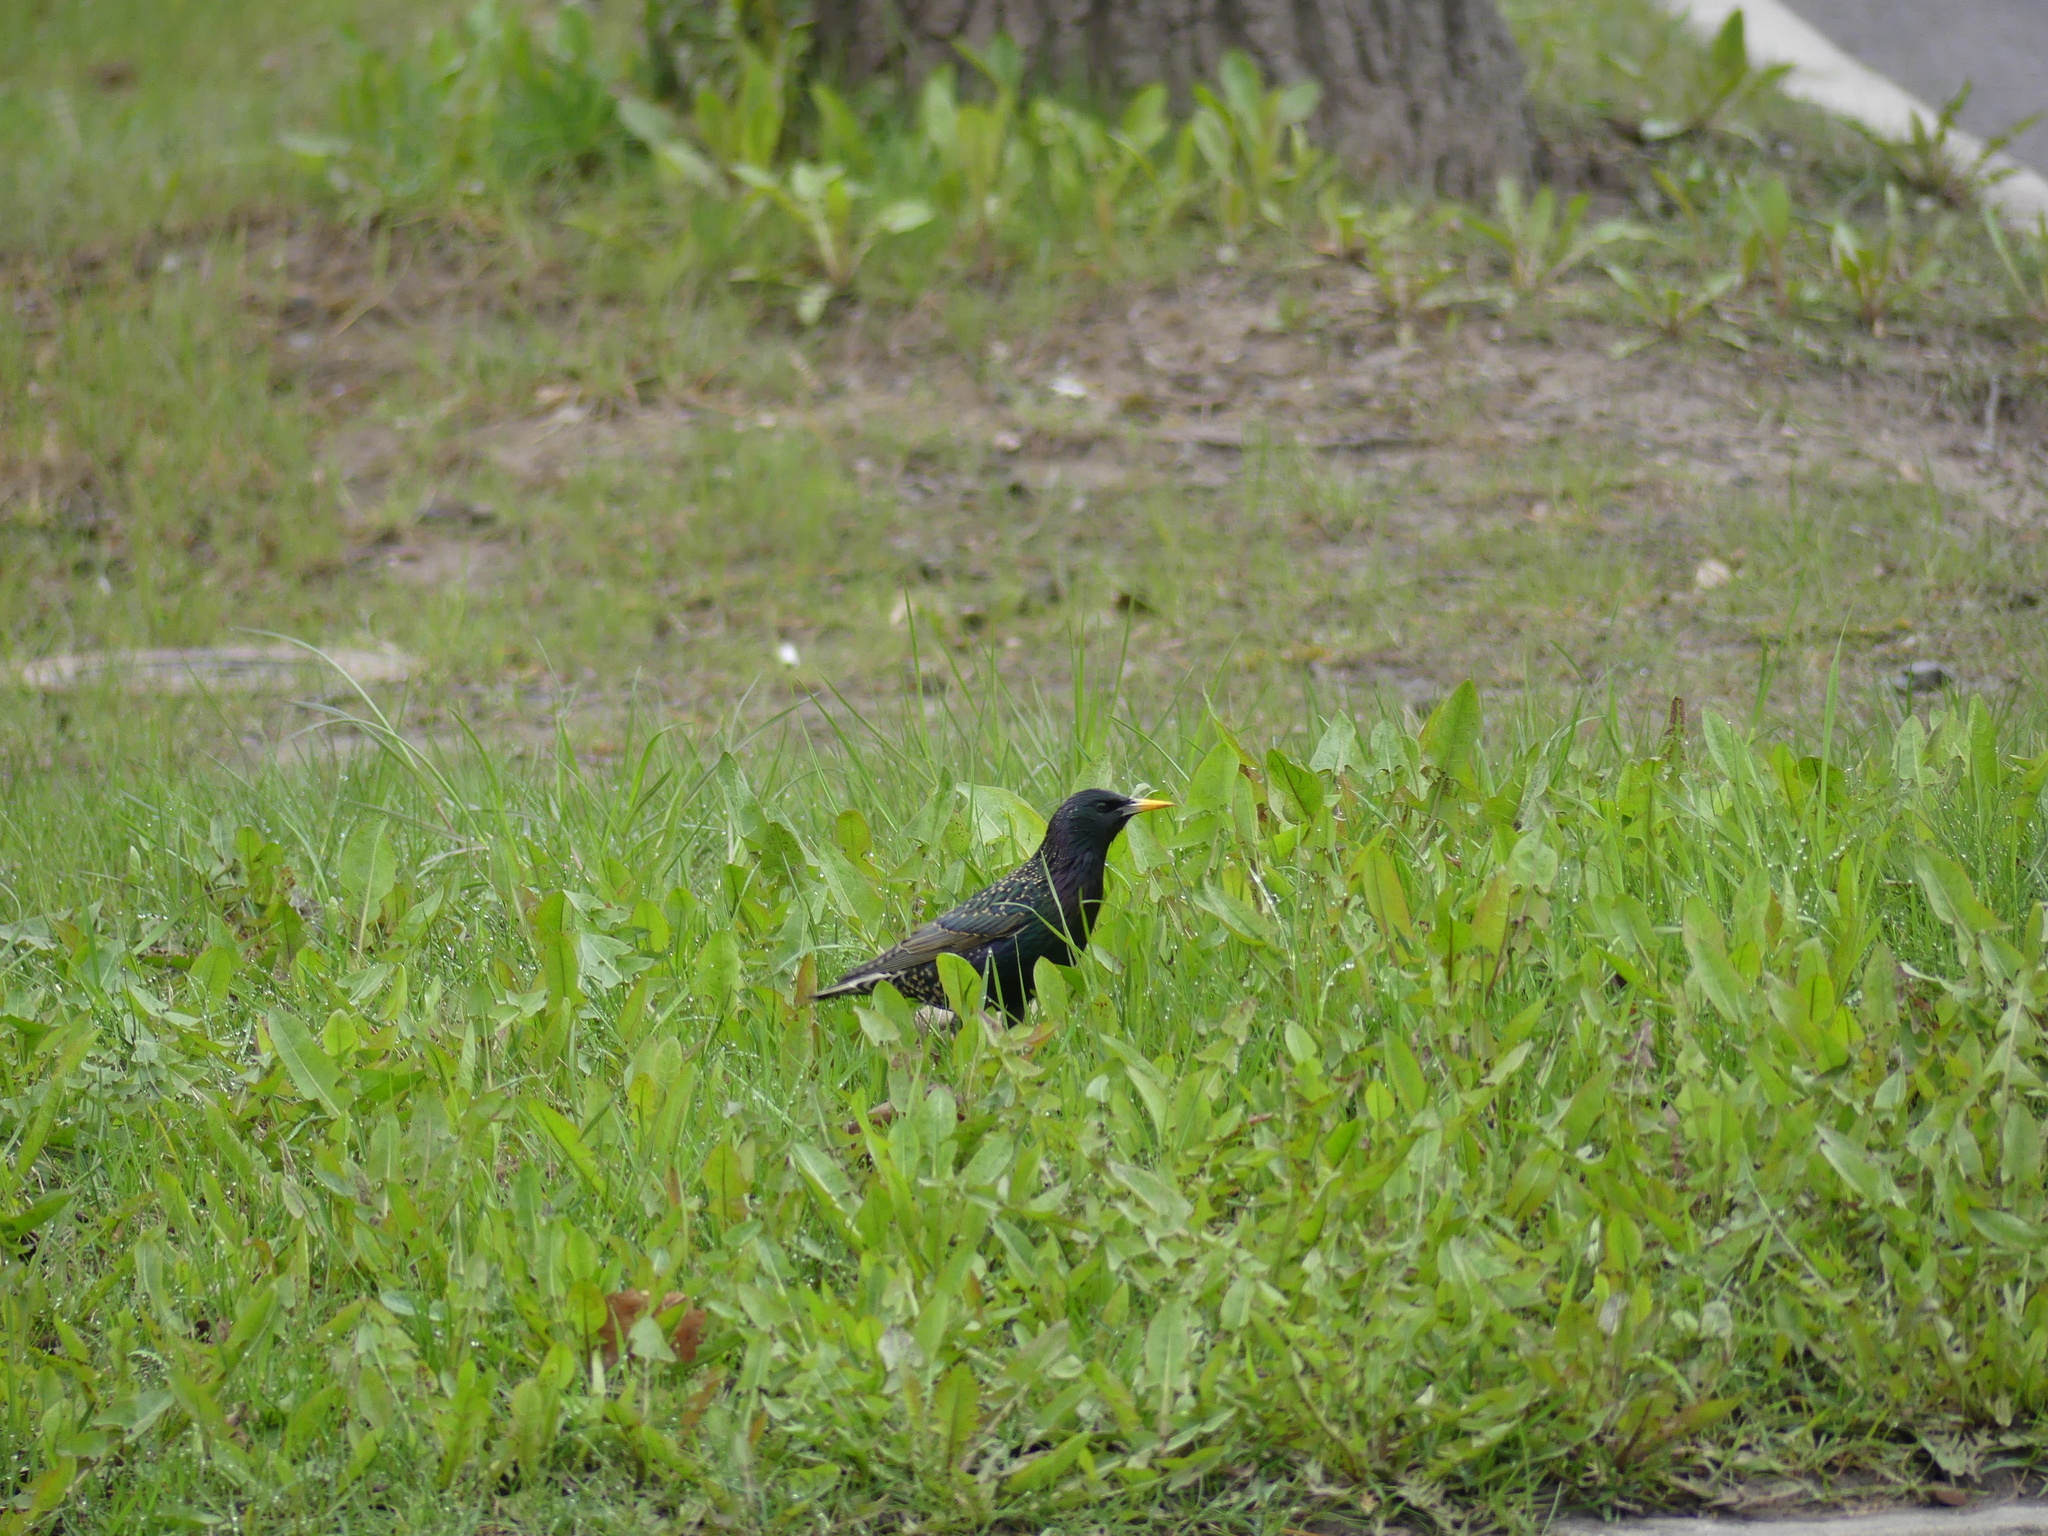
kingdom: Animalia
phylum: Chordata
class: Aves
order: Passeriformes
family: Sturnidae
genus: Sturnus
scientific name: Sturnus vulgaris
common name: Common starling
